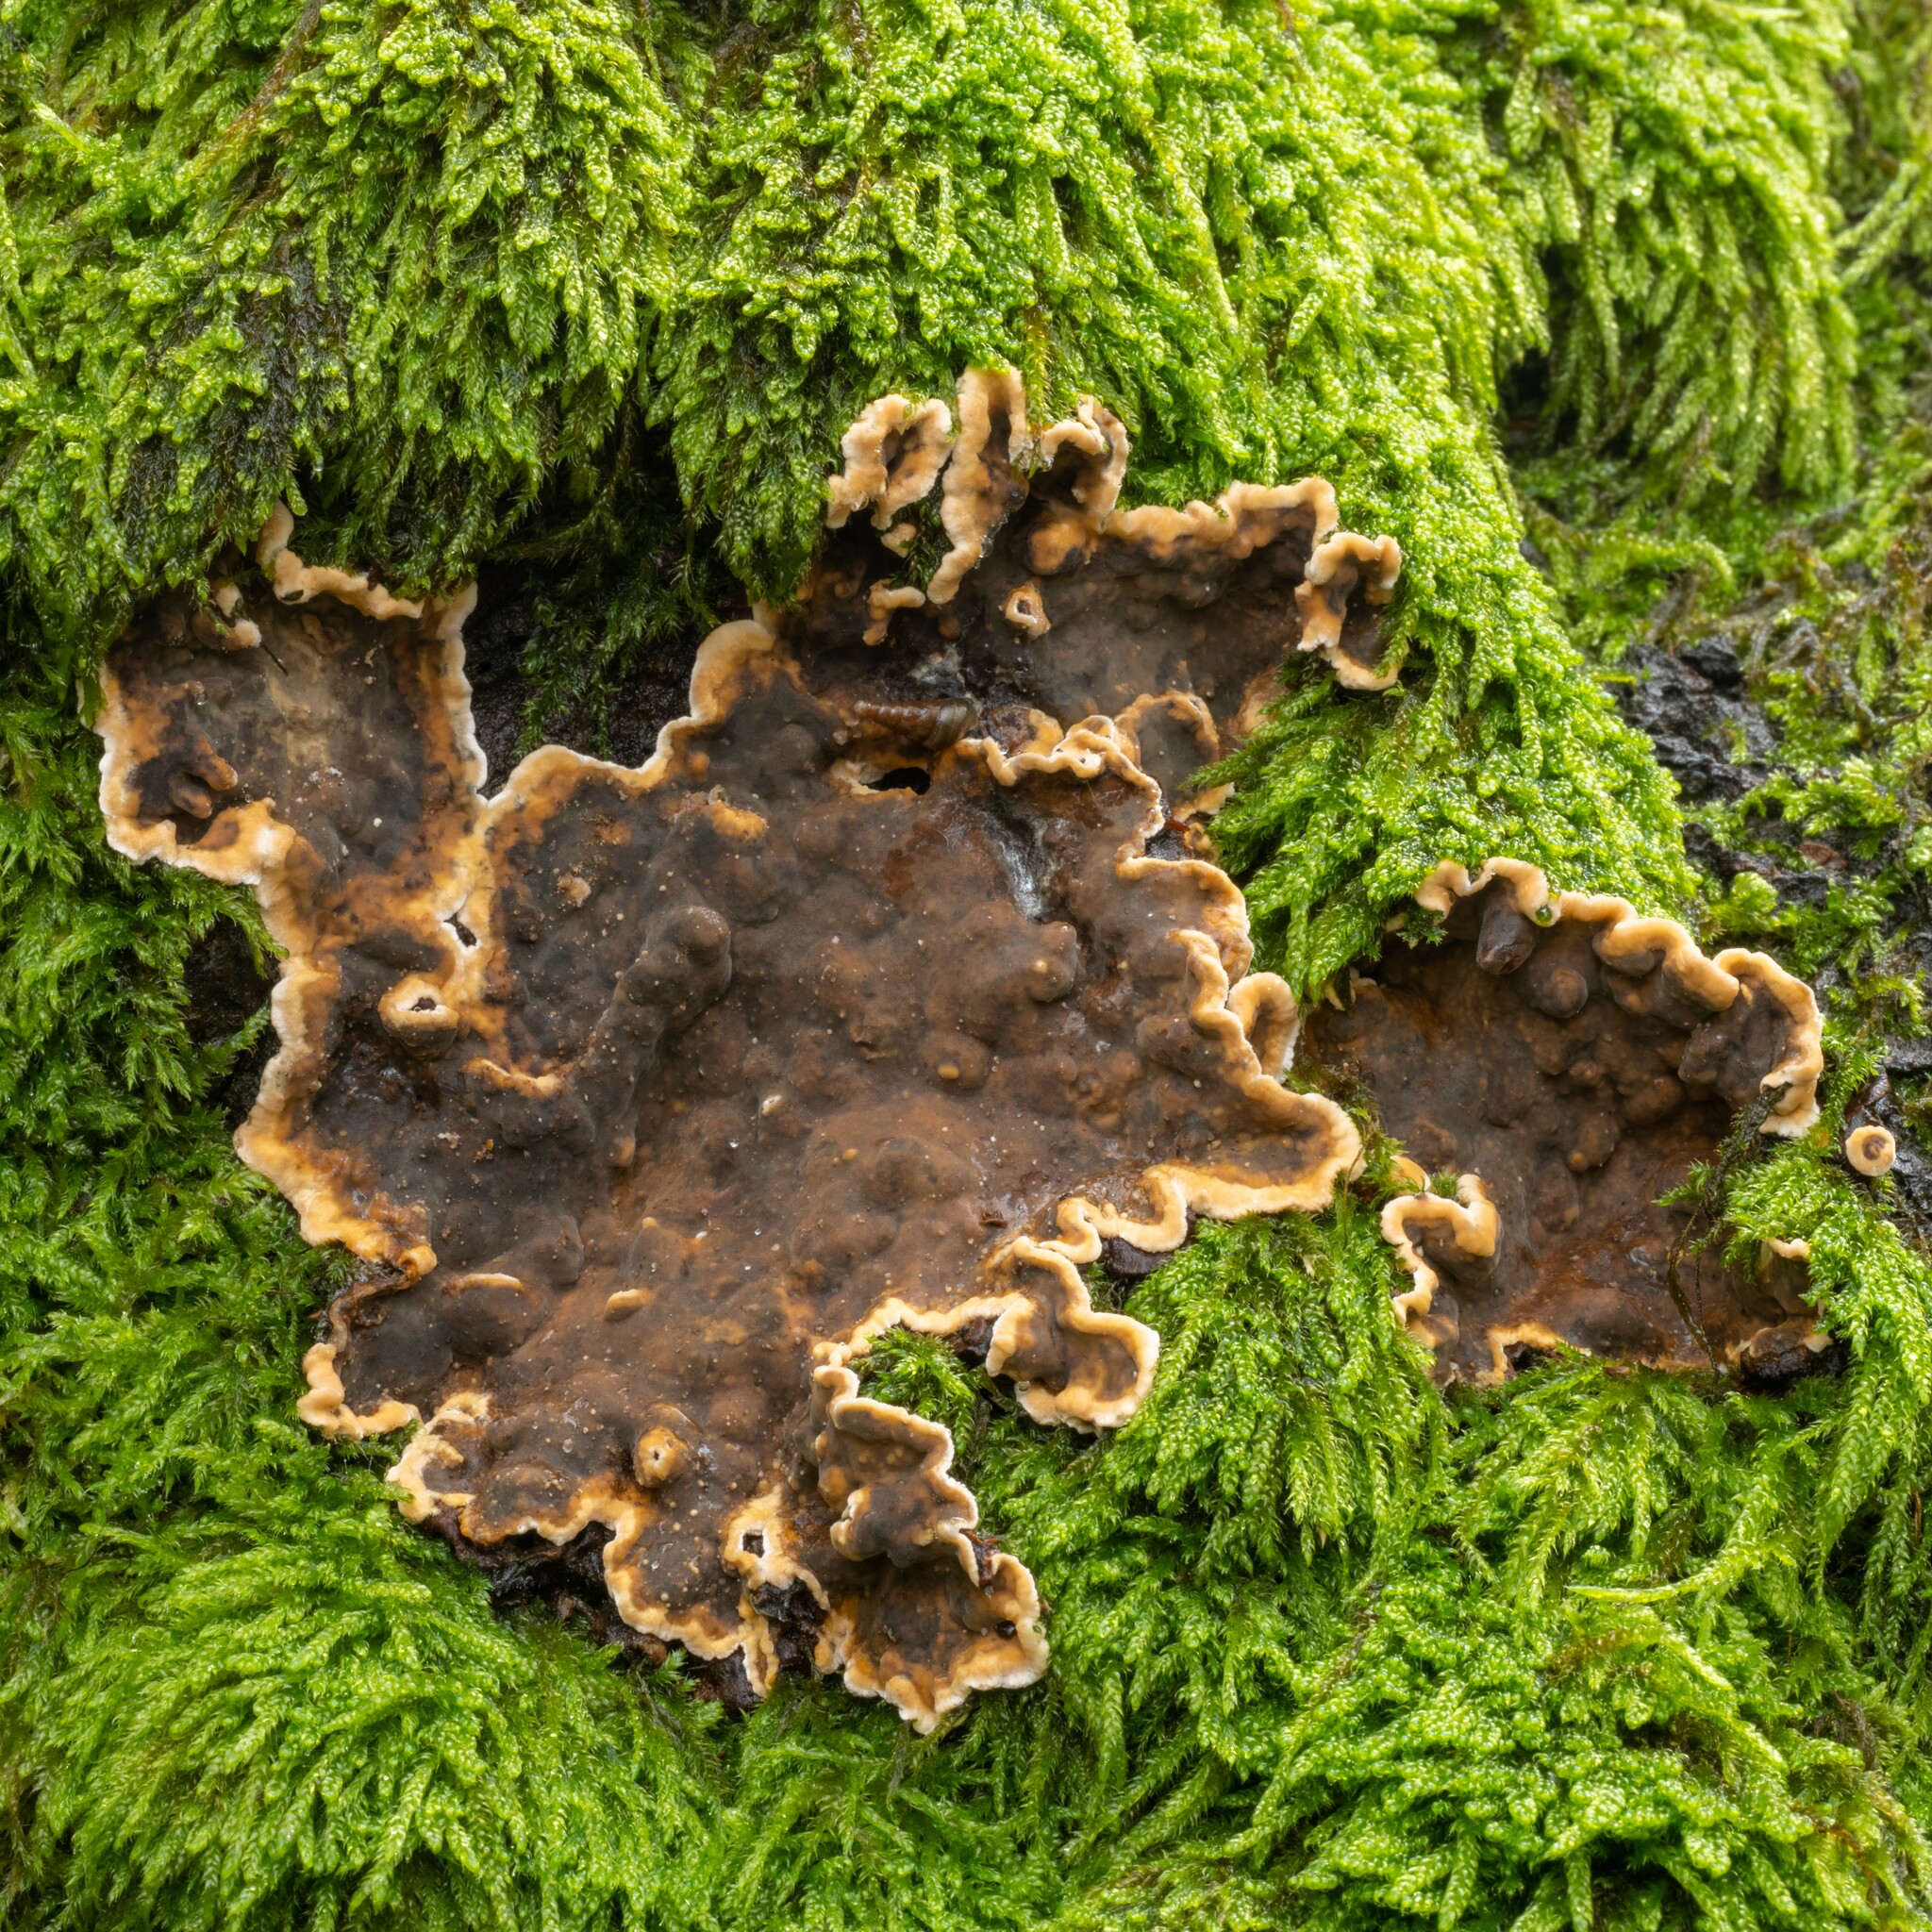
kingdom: Fungi
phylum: Basidiomycota
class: Agaricomycetes
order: Polyporales
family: Phanerochaetaceae
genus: Porostereum
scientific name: Porostereum spadiceum
